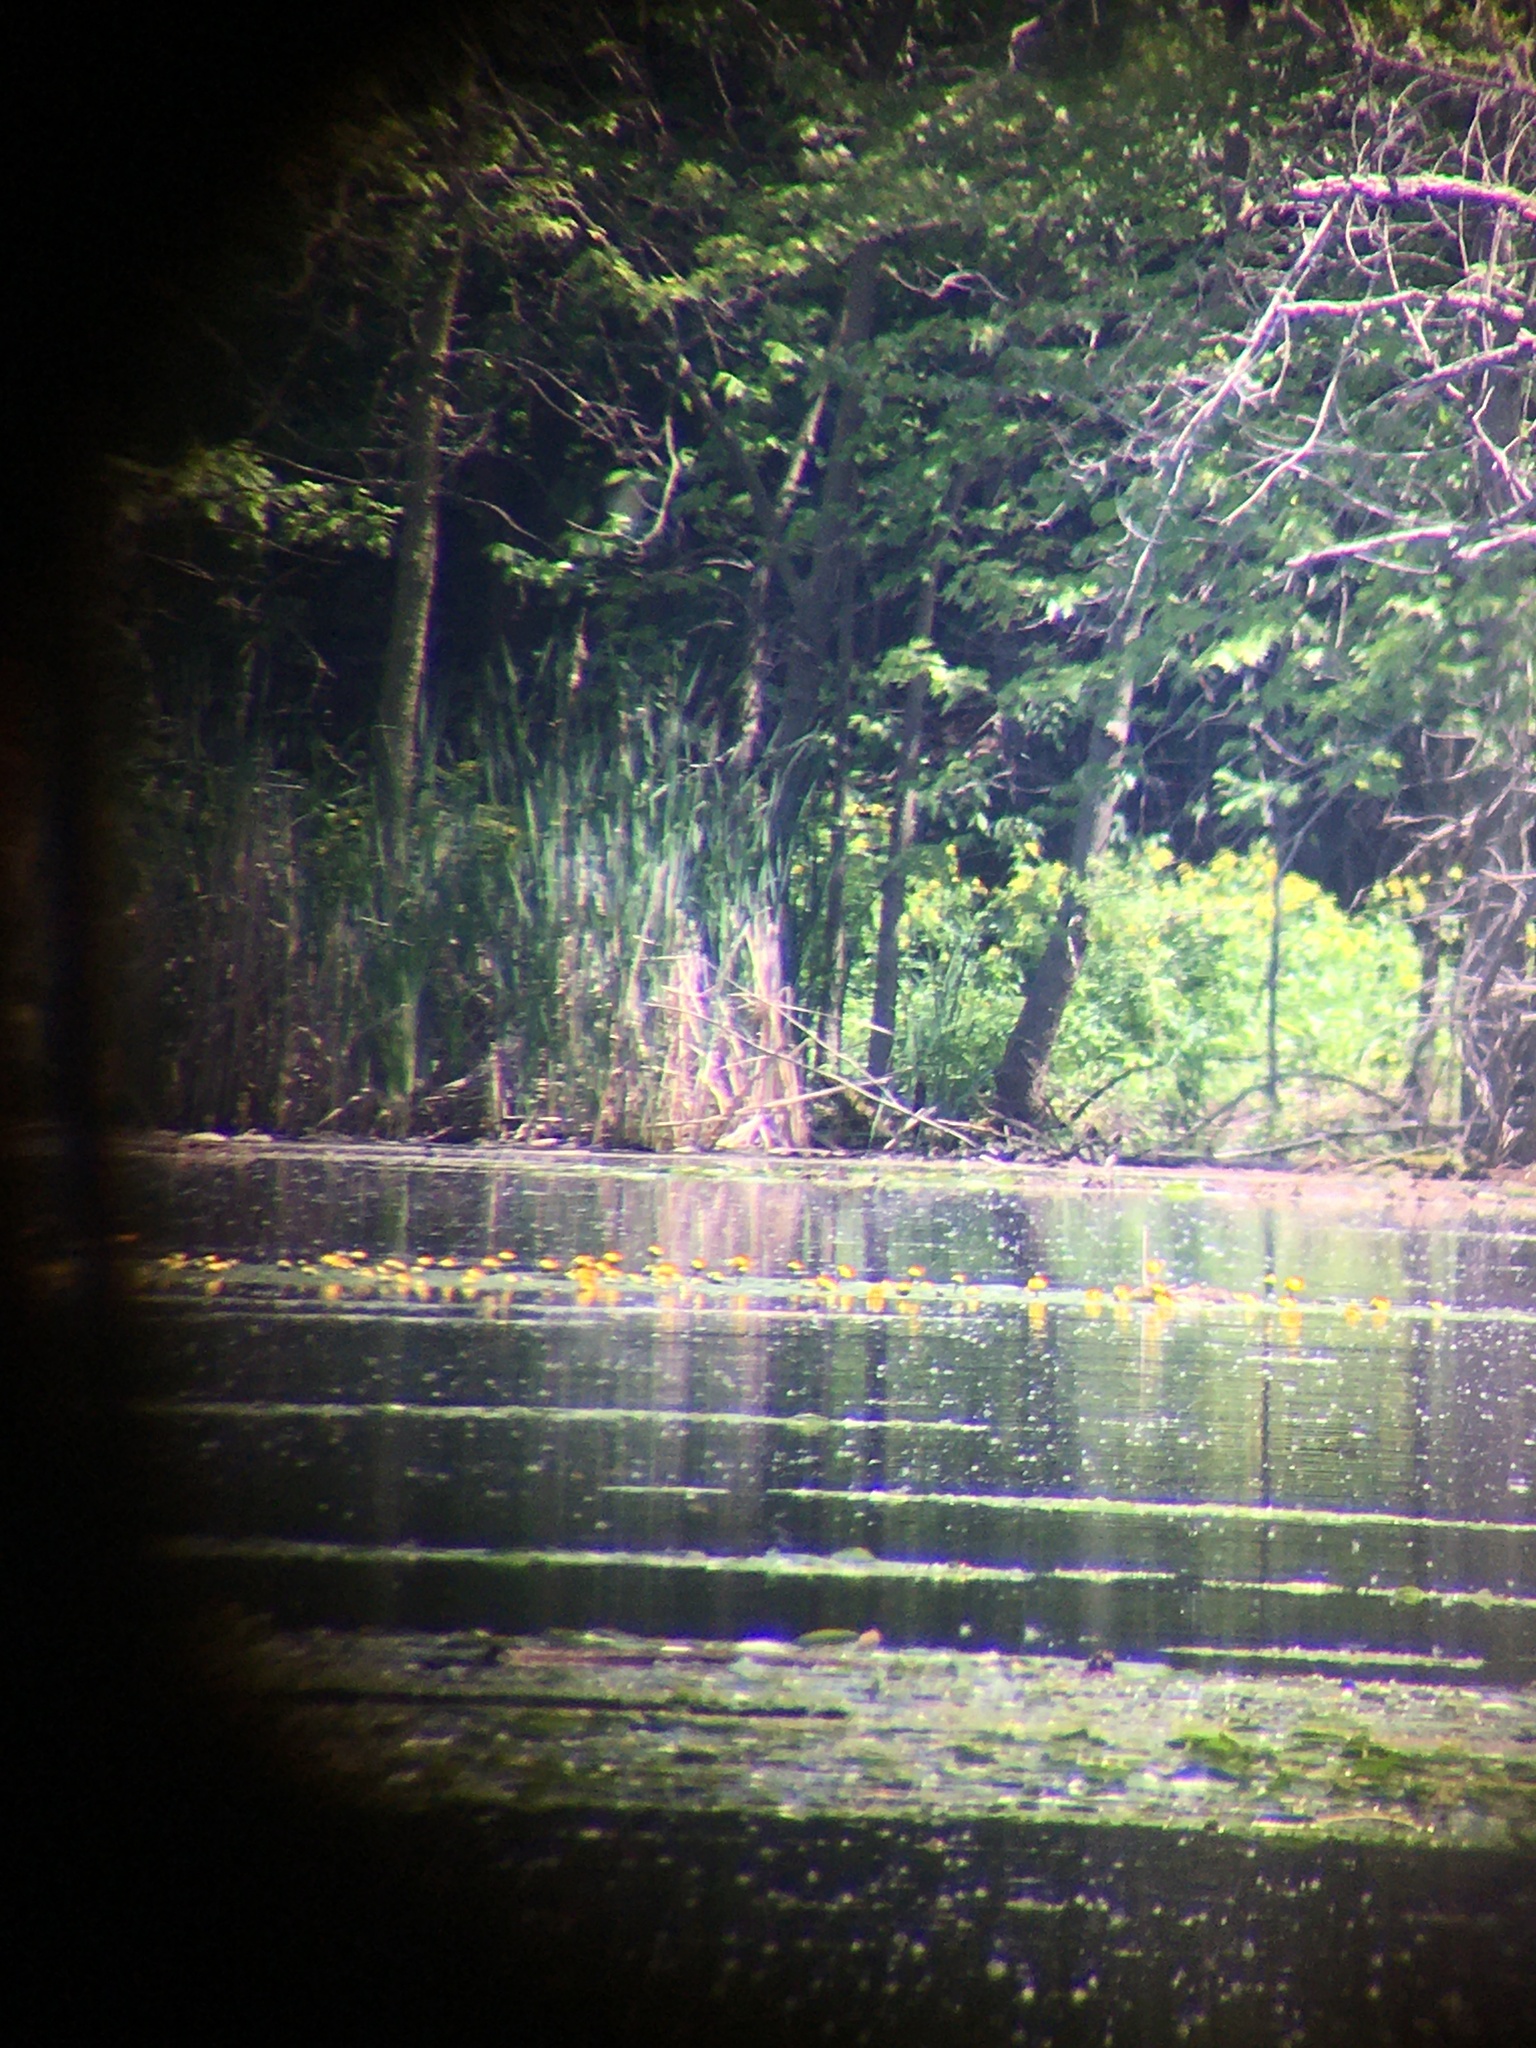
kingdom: Plantae
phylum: Tracheophyta
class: Magnoliopsida
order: Nymphaeales
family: Nymphaeaceae
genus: Nuphar
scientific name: Nuphar variegata
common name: Beaver-root
